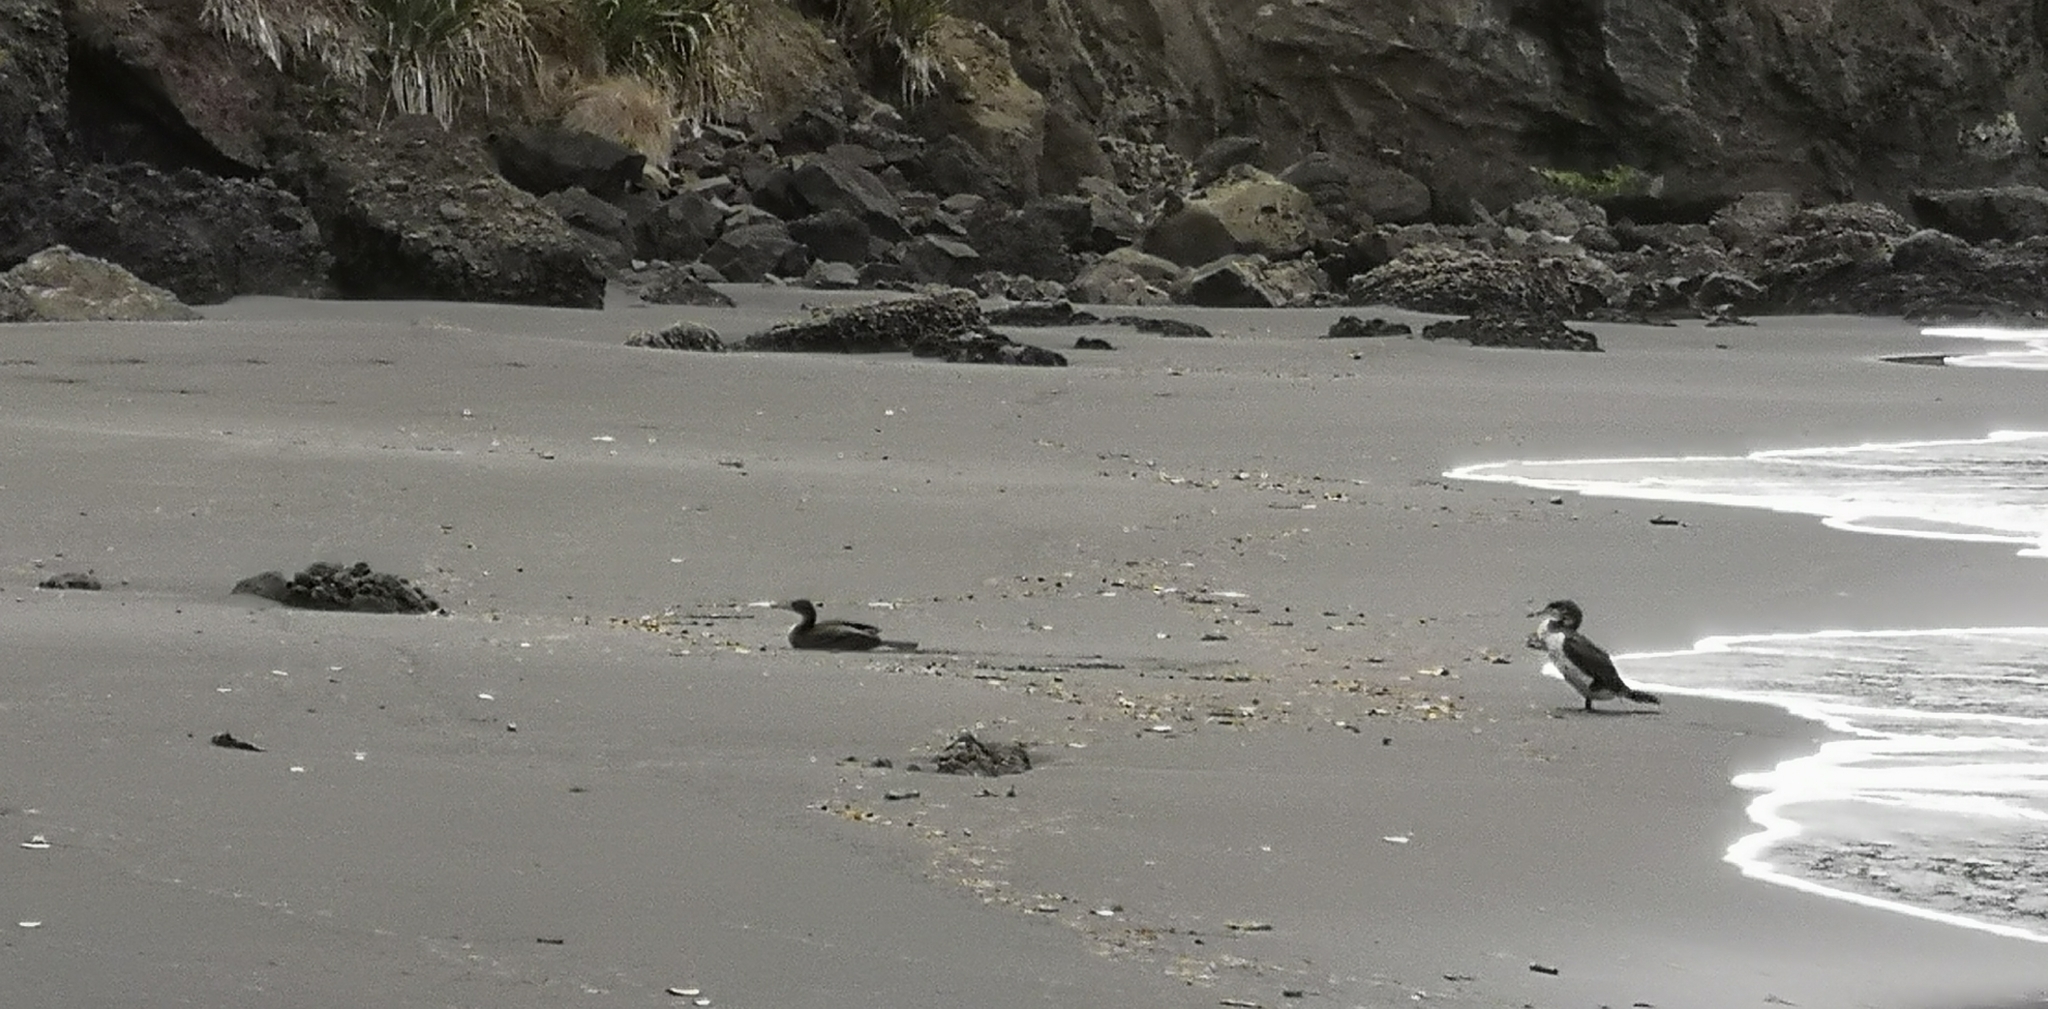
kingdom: Animalia
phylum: Chordata
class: Aves
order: Suliformes
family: Phalacrocoracidae
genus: Phalacrocorax
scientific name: Phalacrocorax varius
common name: Pied cormorant
